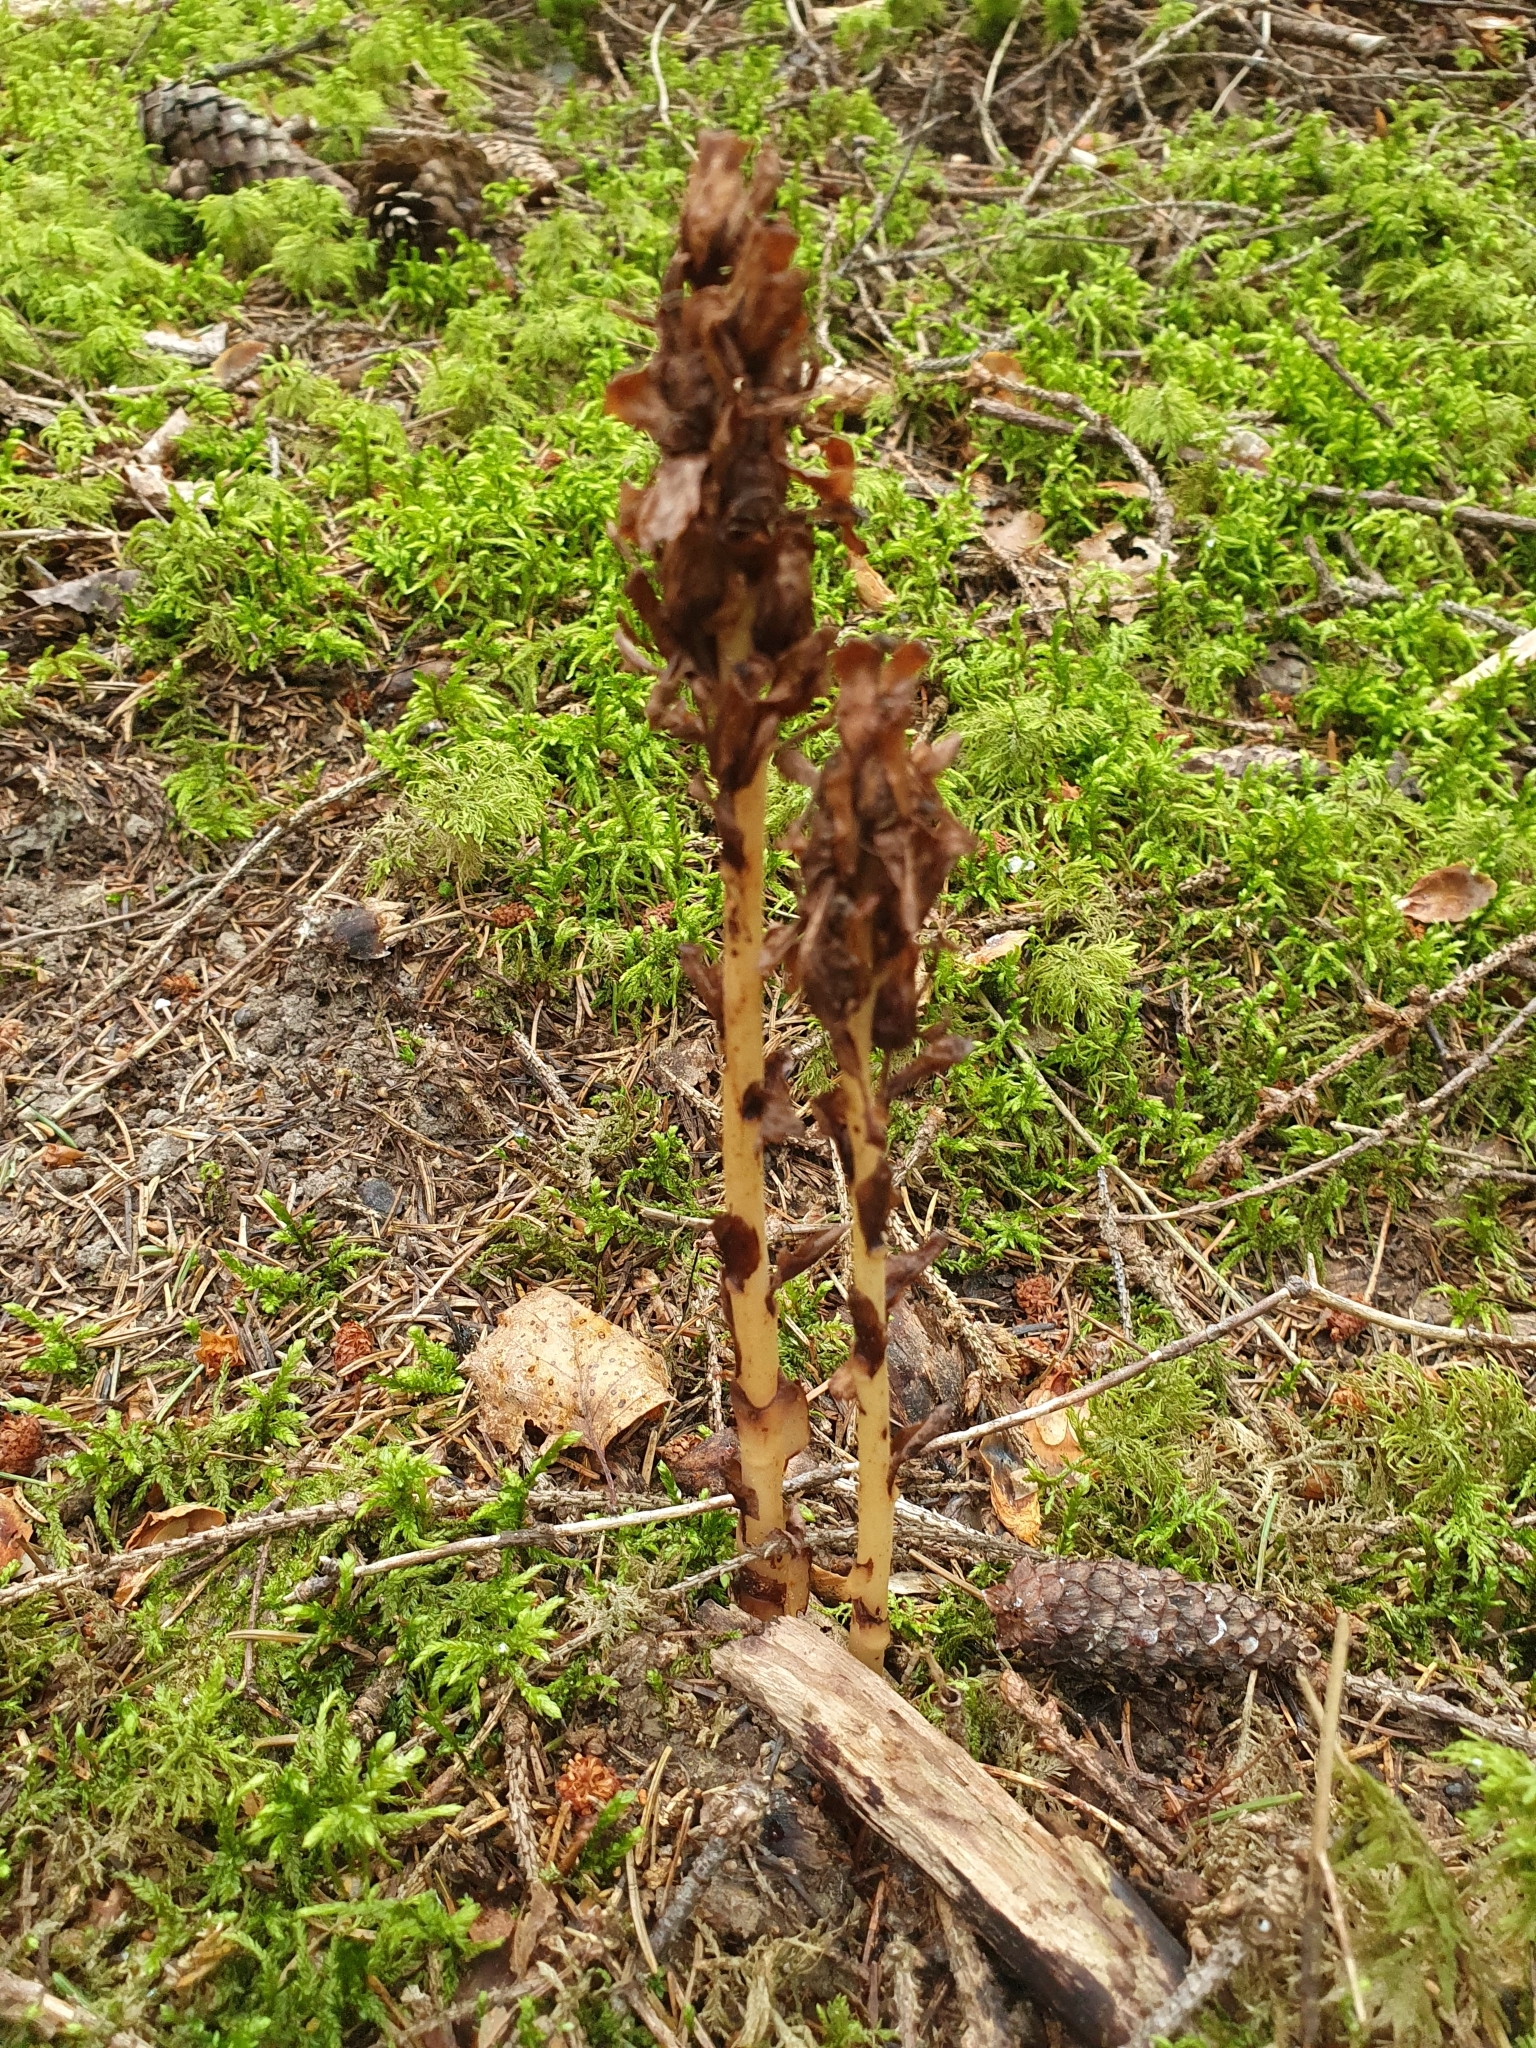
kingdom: Plantae
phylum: Tracheophyta
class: Magnoliopsida
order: Ericales
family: Ericaceae
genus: Hypopitys
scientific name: Hypopitys monotropa
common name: Yellow bird's-nest
